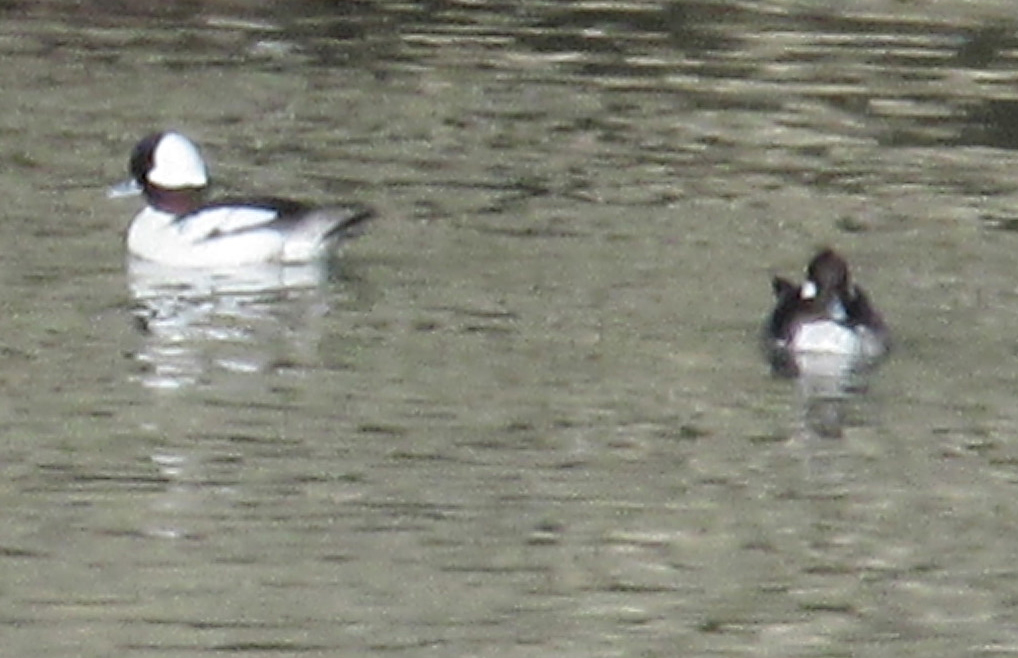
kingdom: Animalia
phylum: Chordata
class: Aves
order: Anseriformes
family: Anatidae
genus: Bucephala
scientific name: Bucephala albeola
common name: Bufflehead
